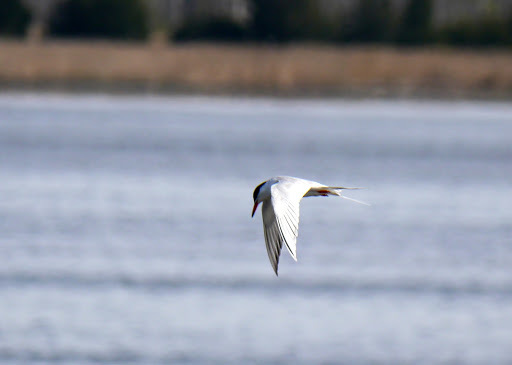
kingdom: Animalia
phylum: Chordata
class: Aves
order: Charadriiformes
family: Laridae
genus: Sterna
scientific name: Sterna forsteri
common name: Forster's tern
